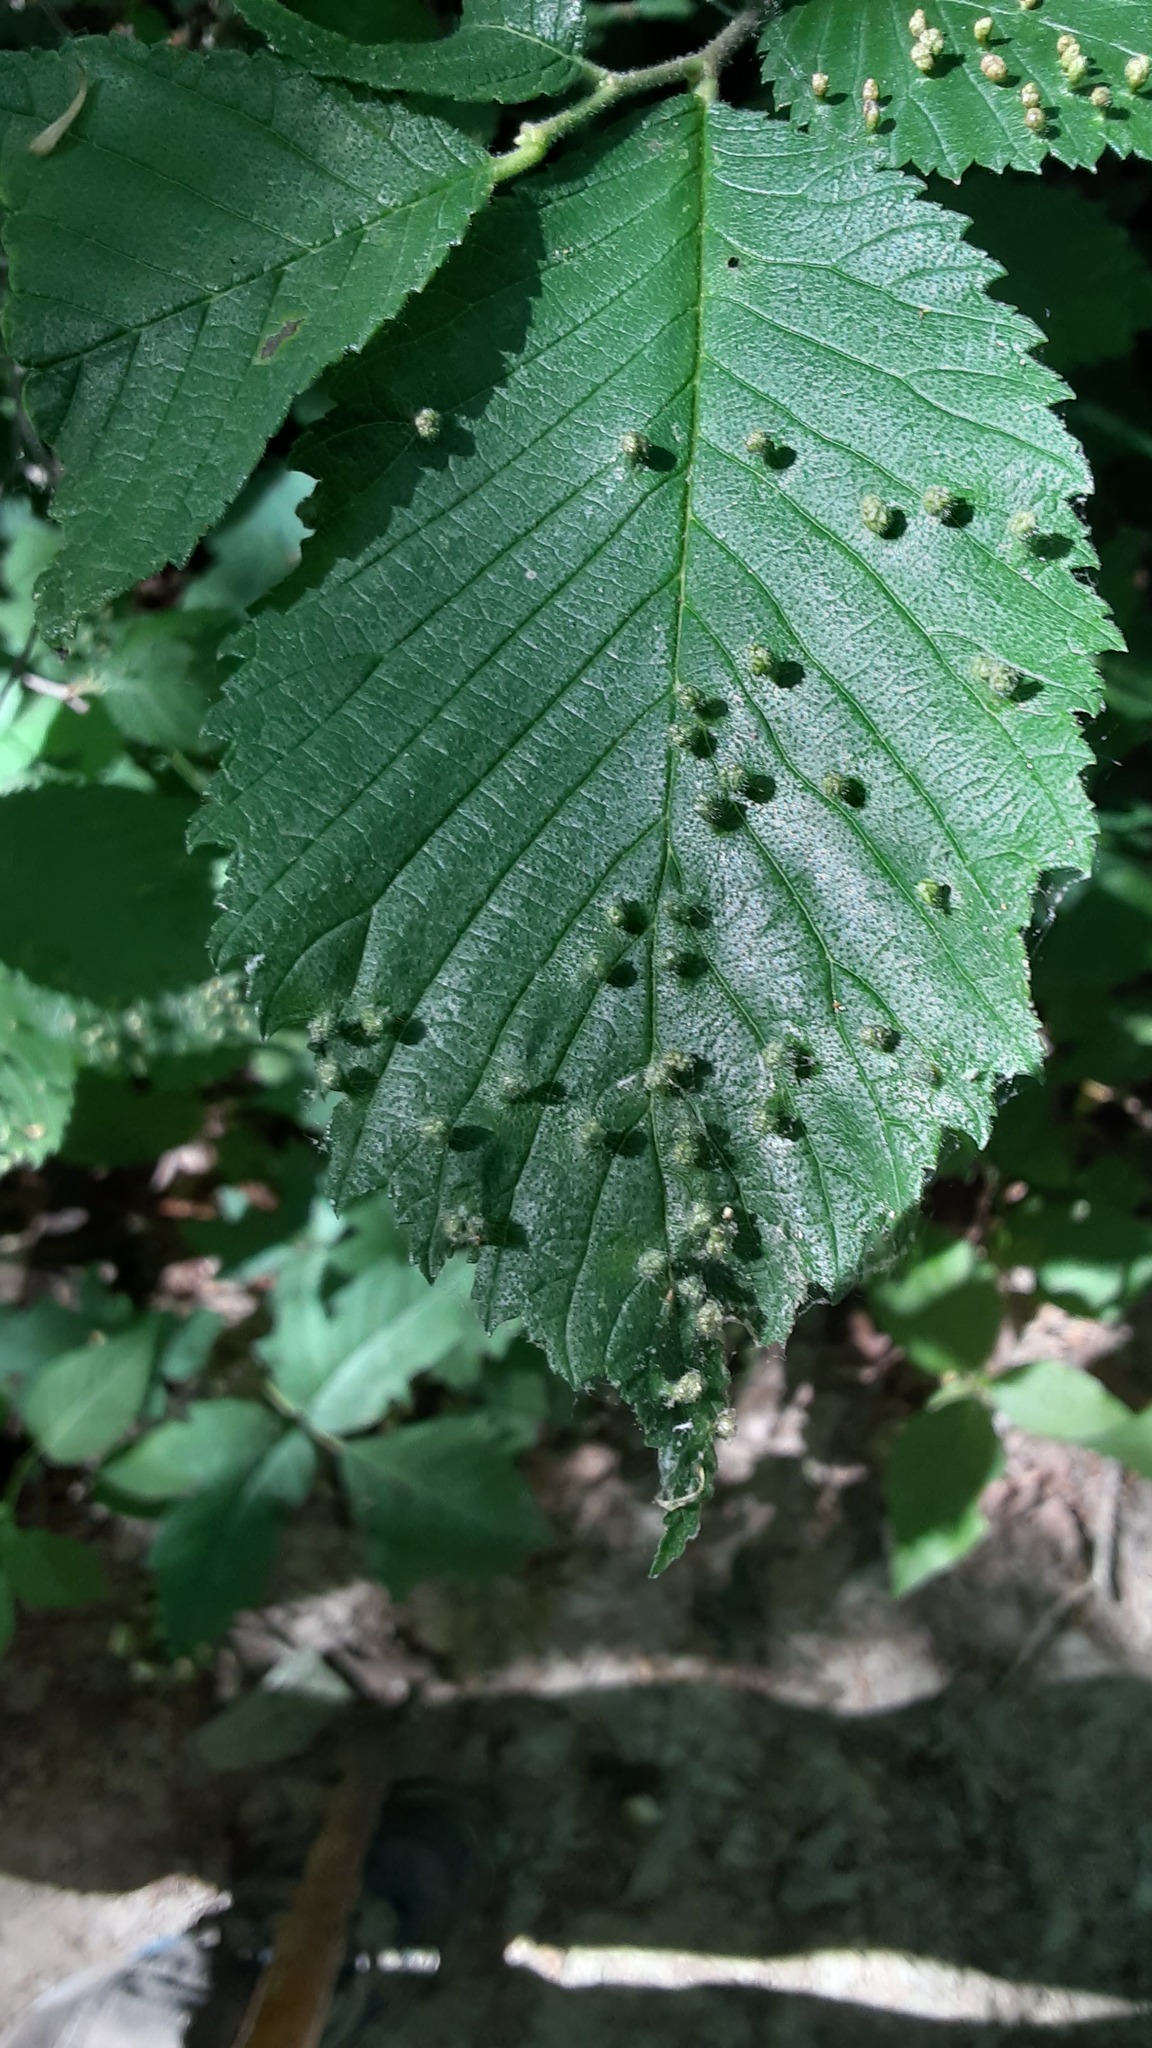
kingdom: Animalia
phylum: Arthropoda
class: Arachnida
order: Trombidiformes
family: Eriophyidae
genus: Aceria
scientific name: Aceria brevipunctata
